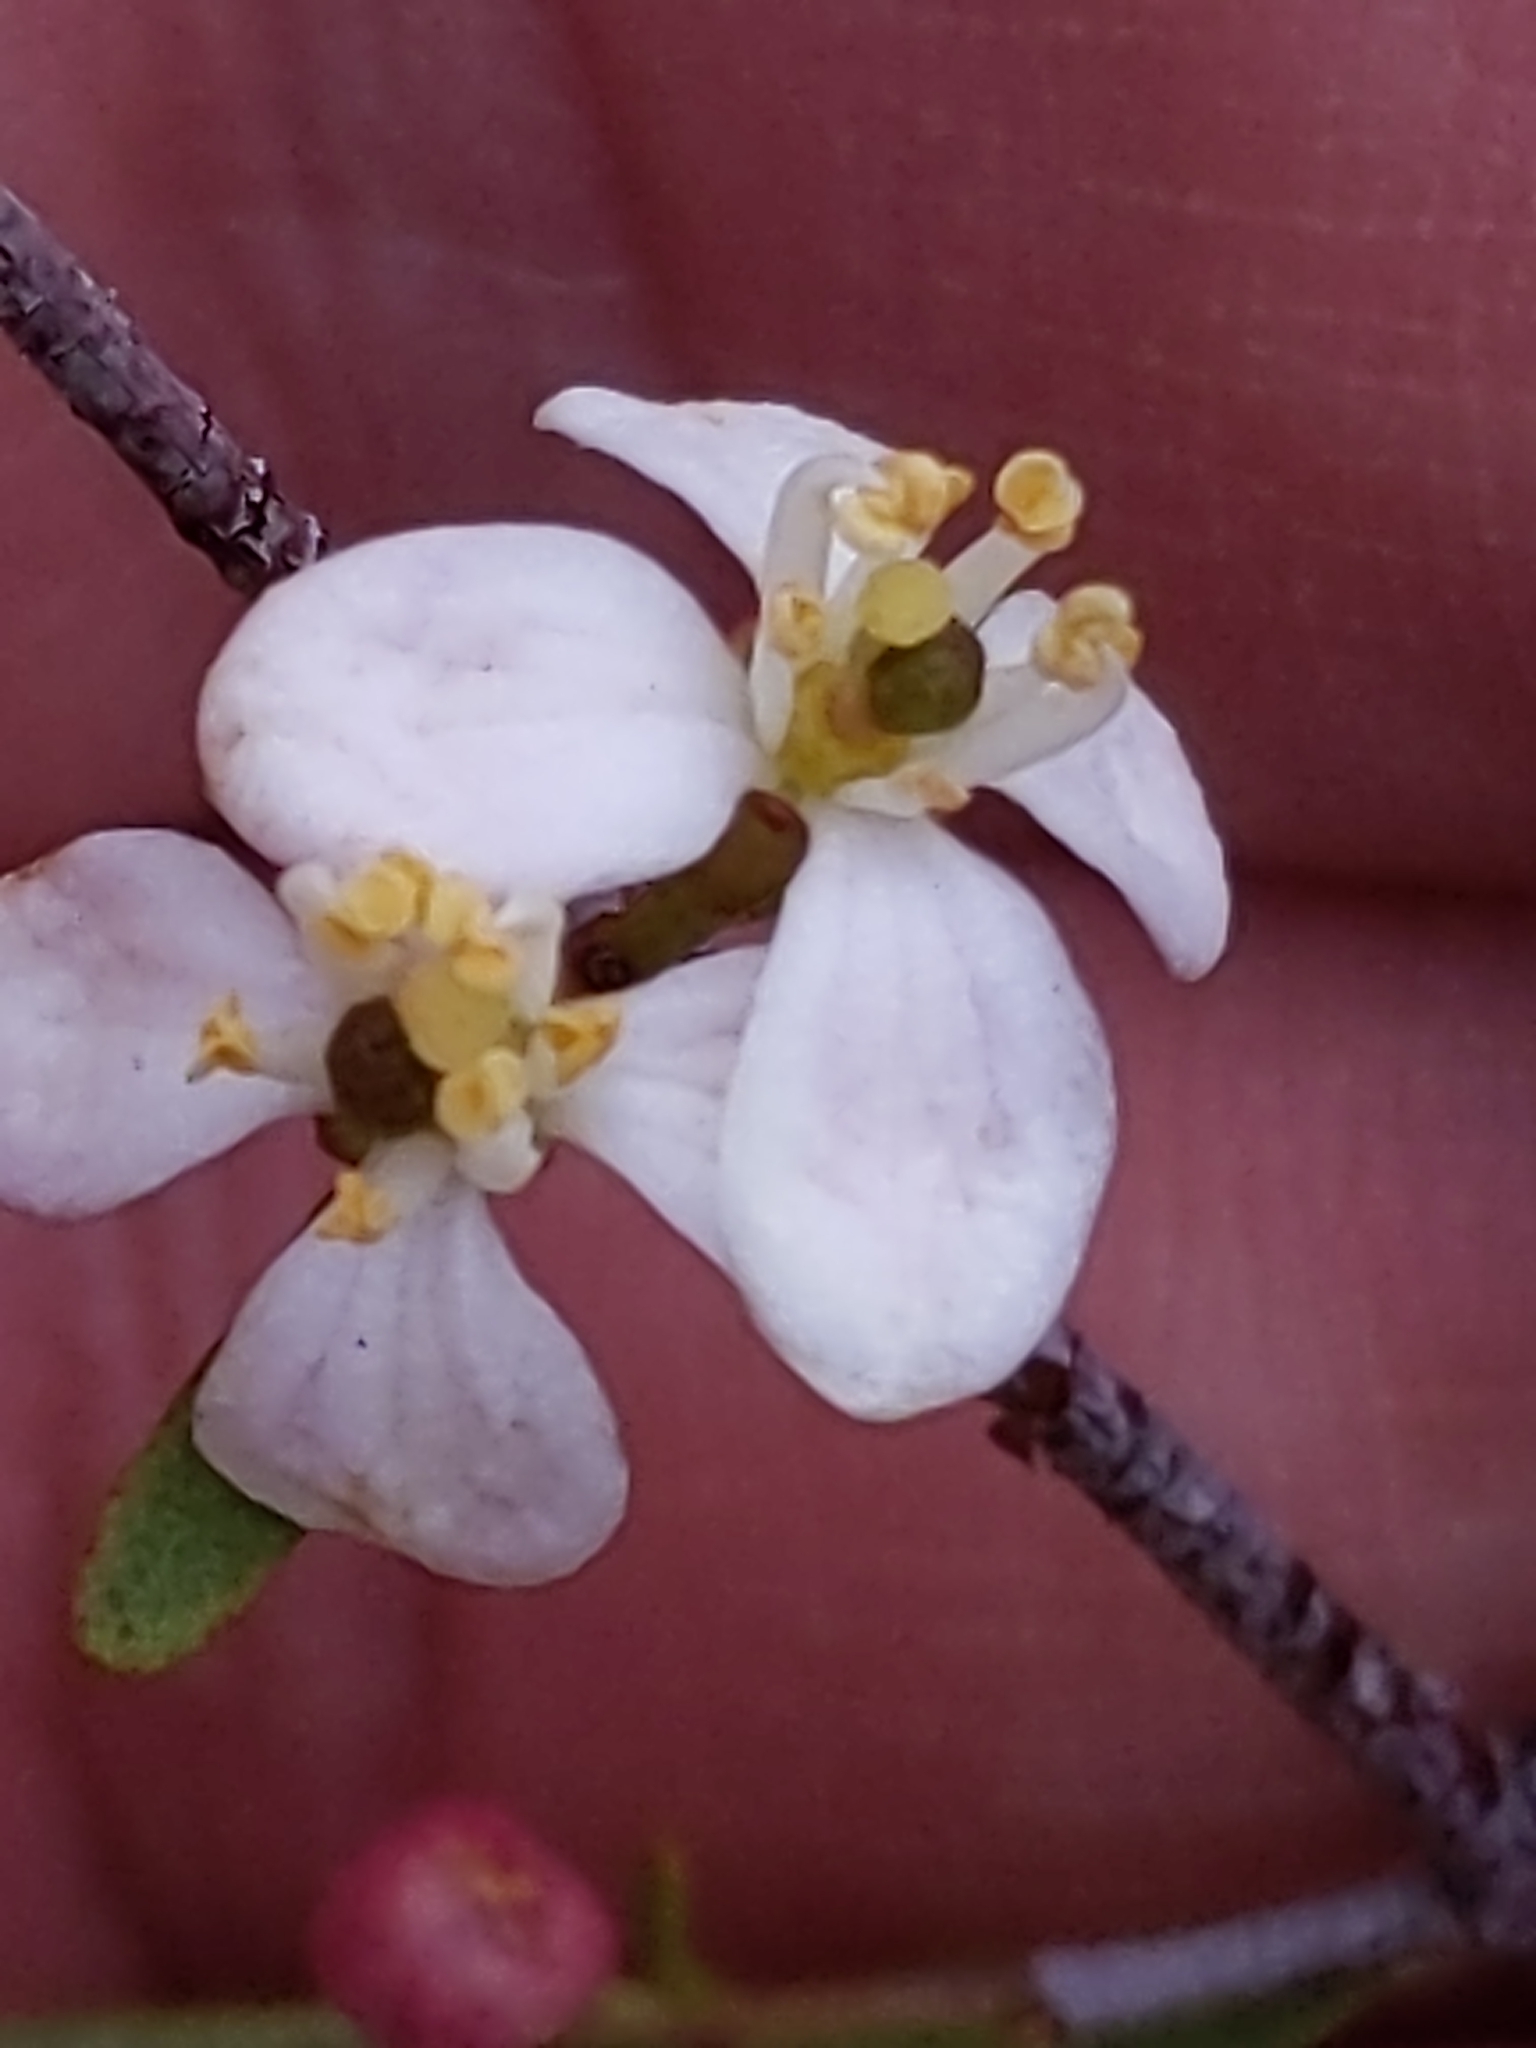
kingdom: Plantae
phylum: Tracheophyta
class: Magnoliopsida
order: Sapindales
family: Rutaceae
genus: Cneoridium
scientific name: Cneoridium dumosum
